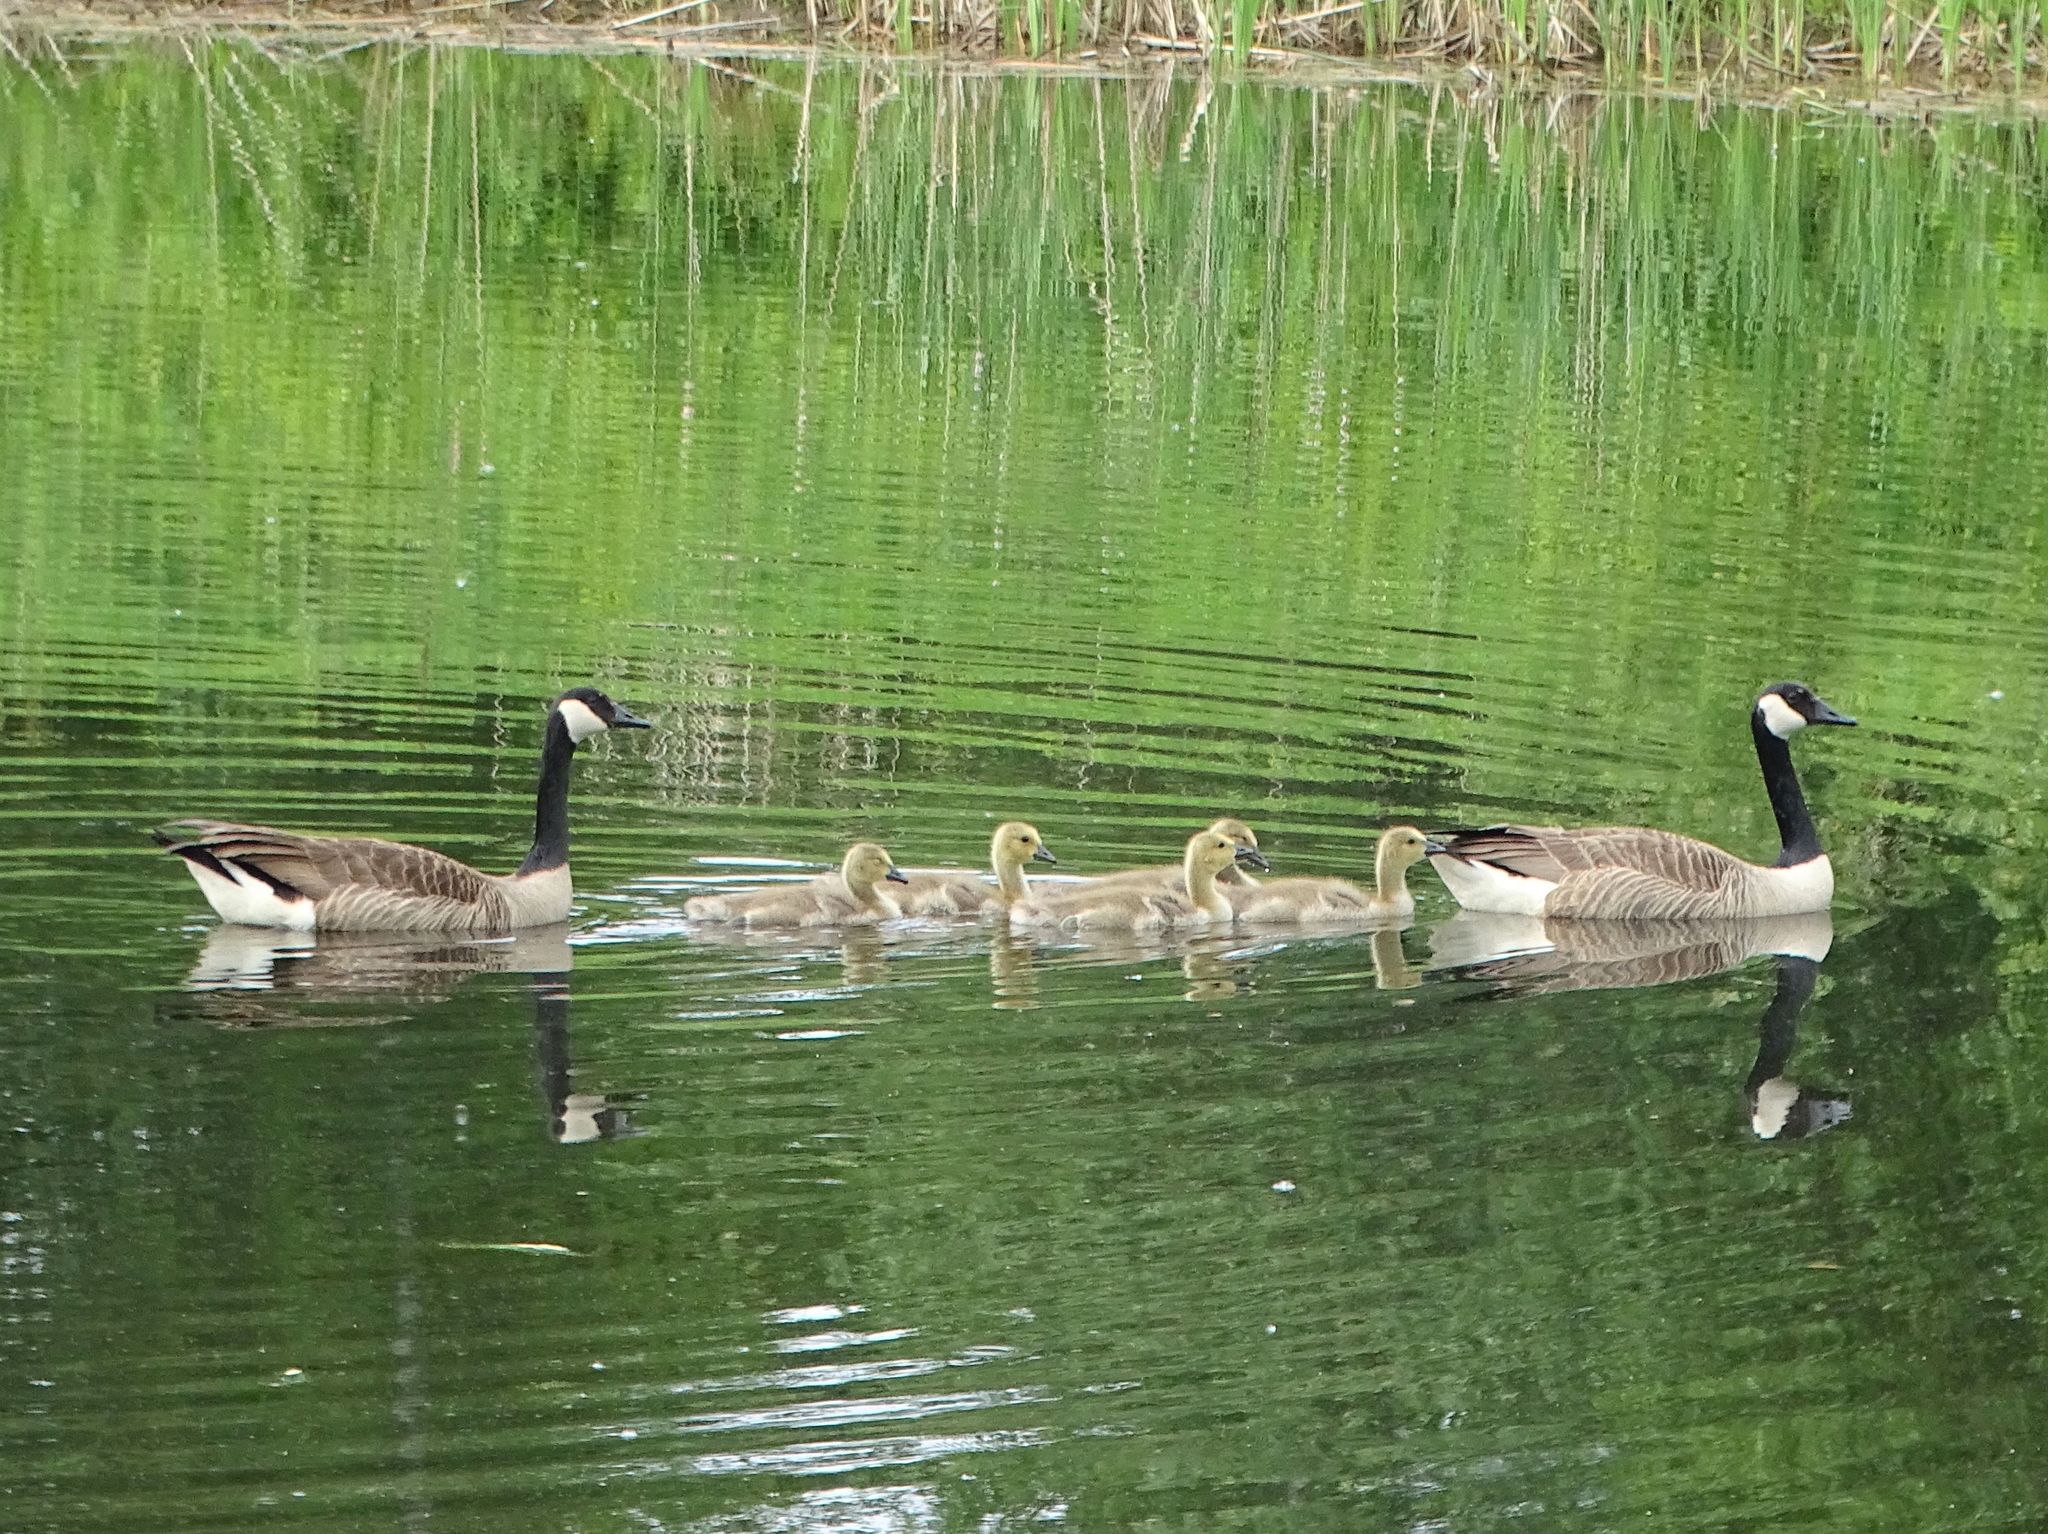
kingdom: Animalia
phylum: Chordata
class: Aves
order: Anseriformes
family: Anatidae
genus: Branta
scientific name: Branta canadensis
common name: Canada goose
